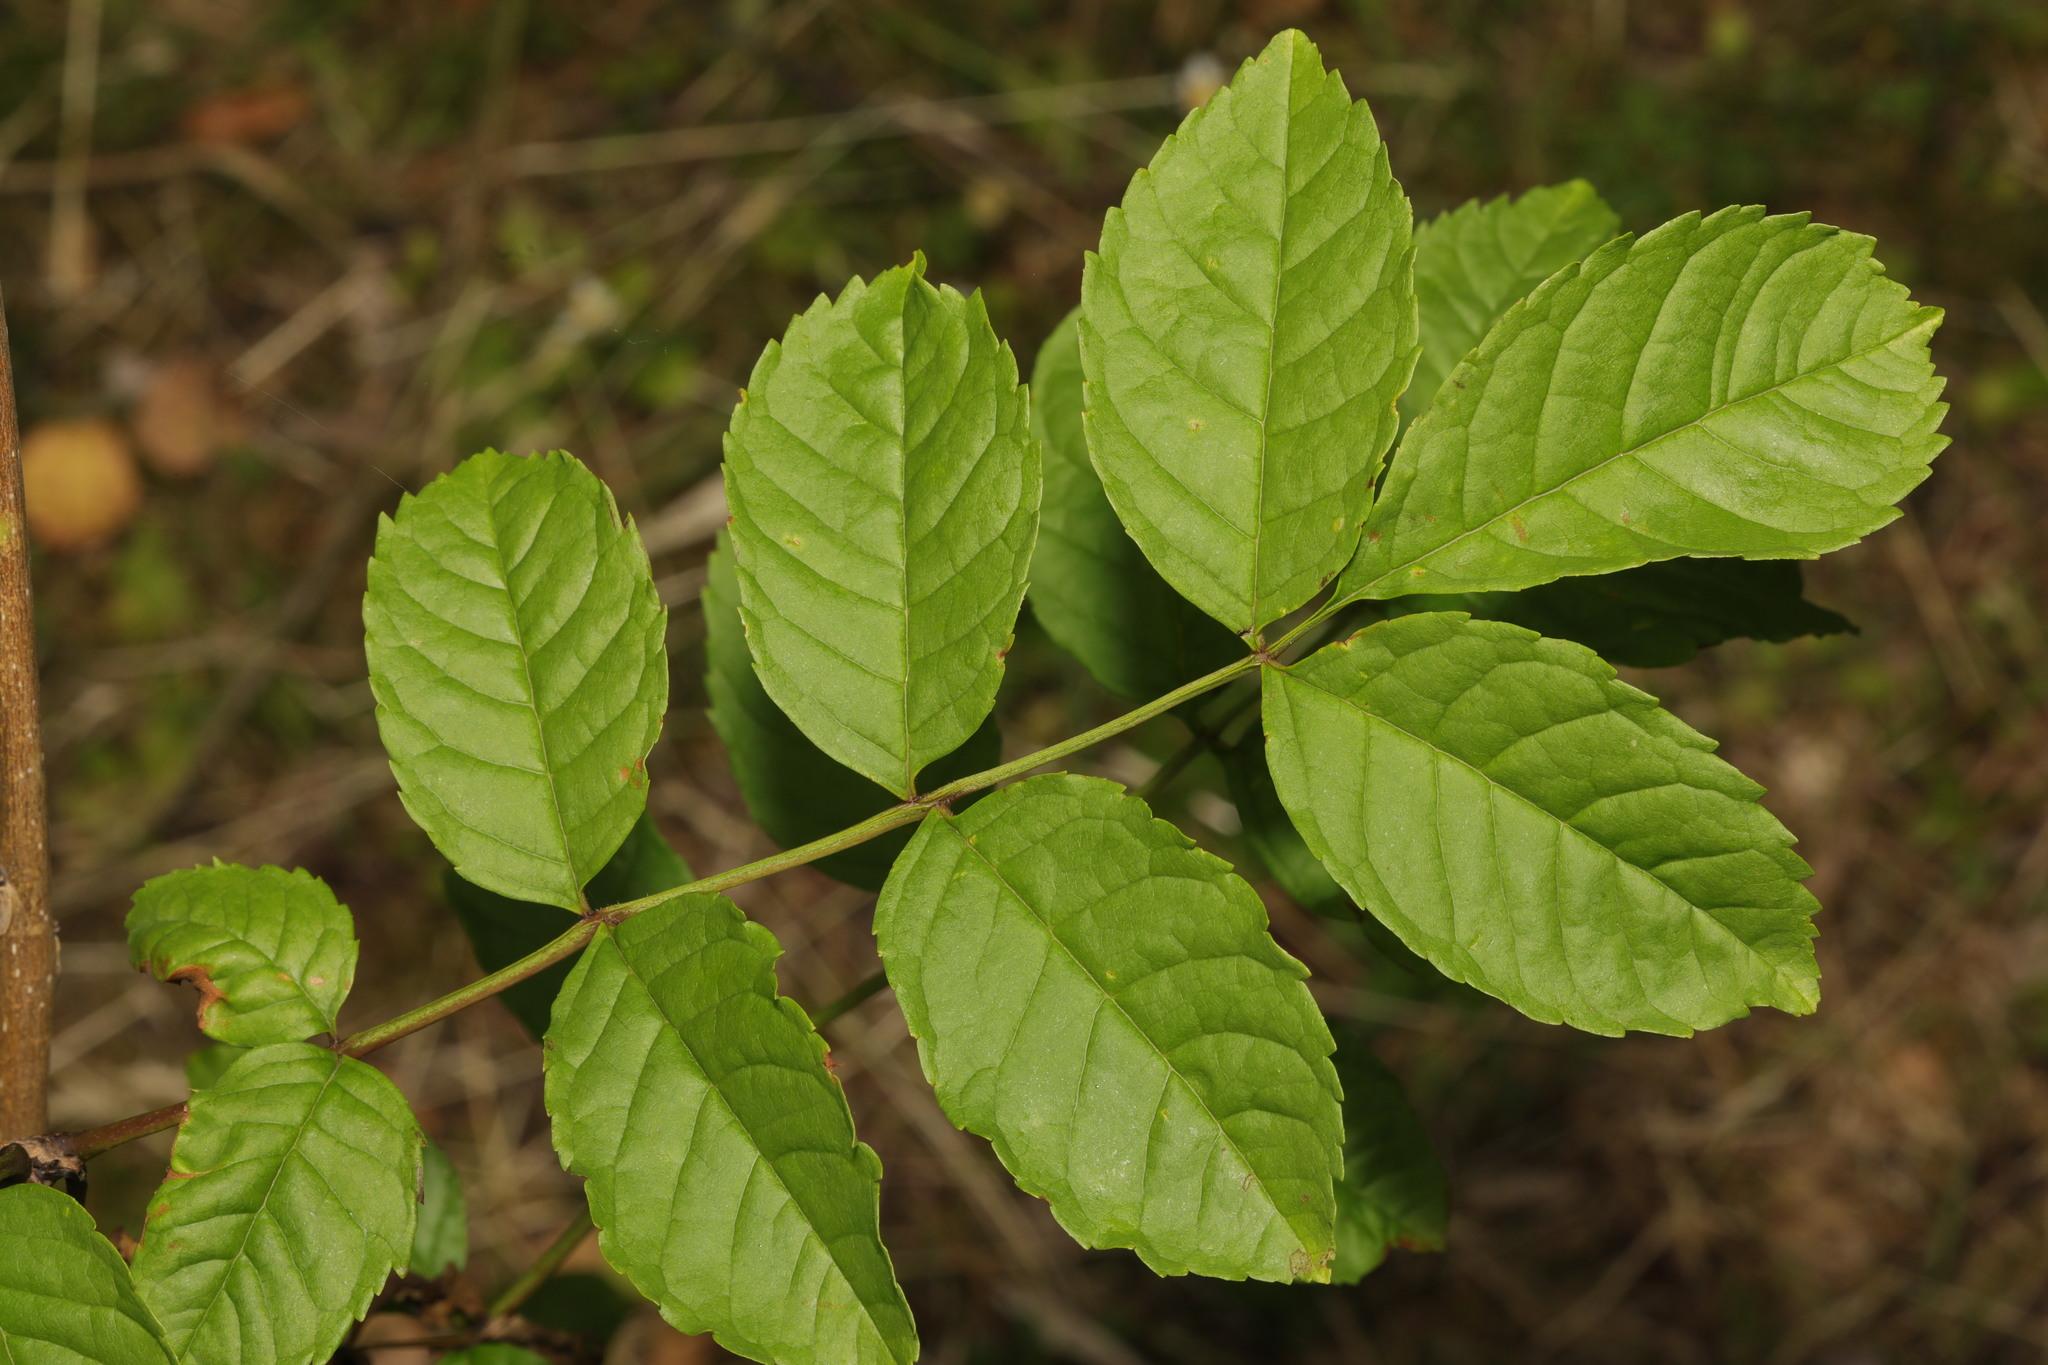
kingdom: Plantae
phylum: Tracheophyta
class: Magnoliopsida
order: Lamiales
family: Oleaceae
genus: Fraxinus
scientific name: Fraxinus excelsior
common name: European ash
